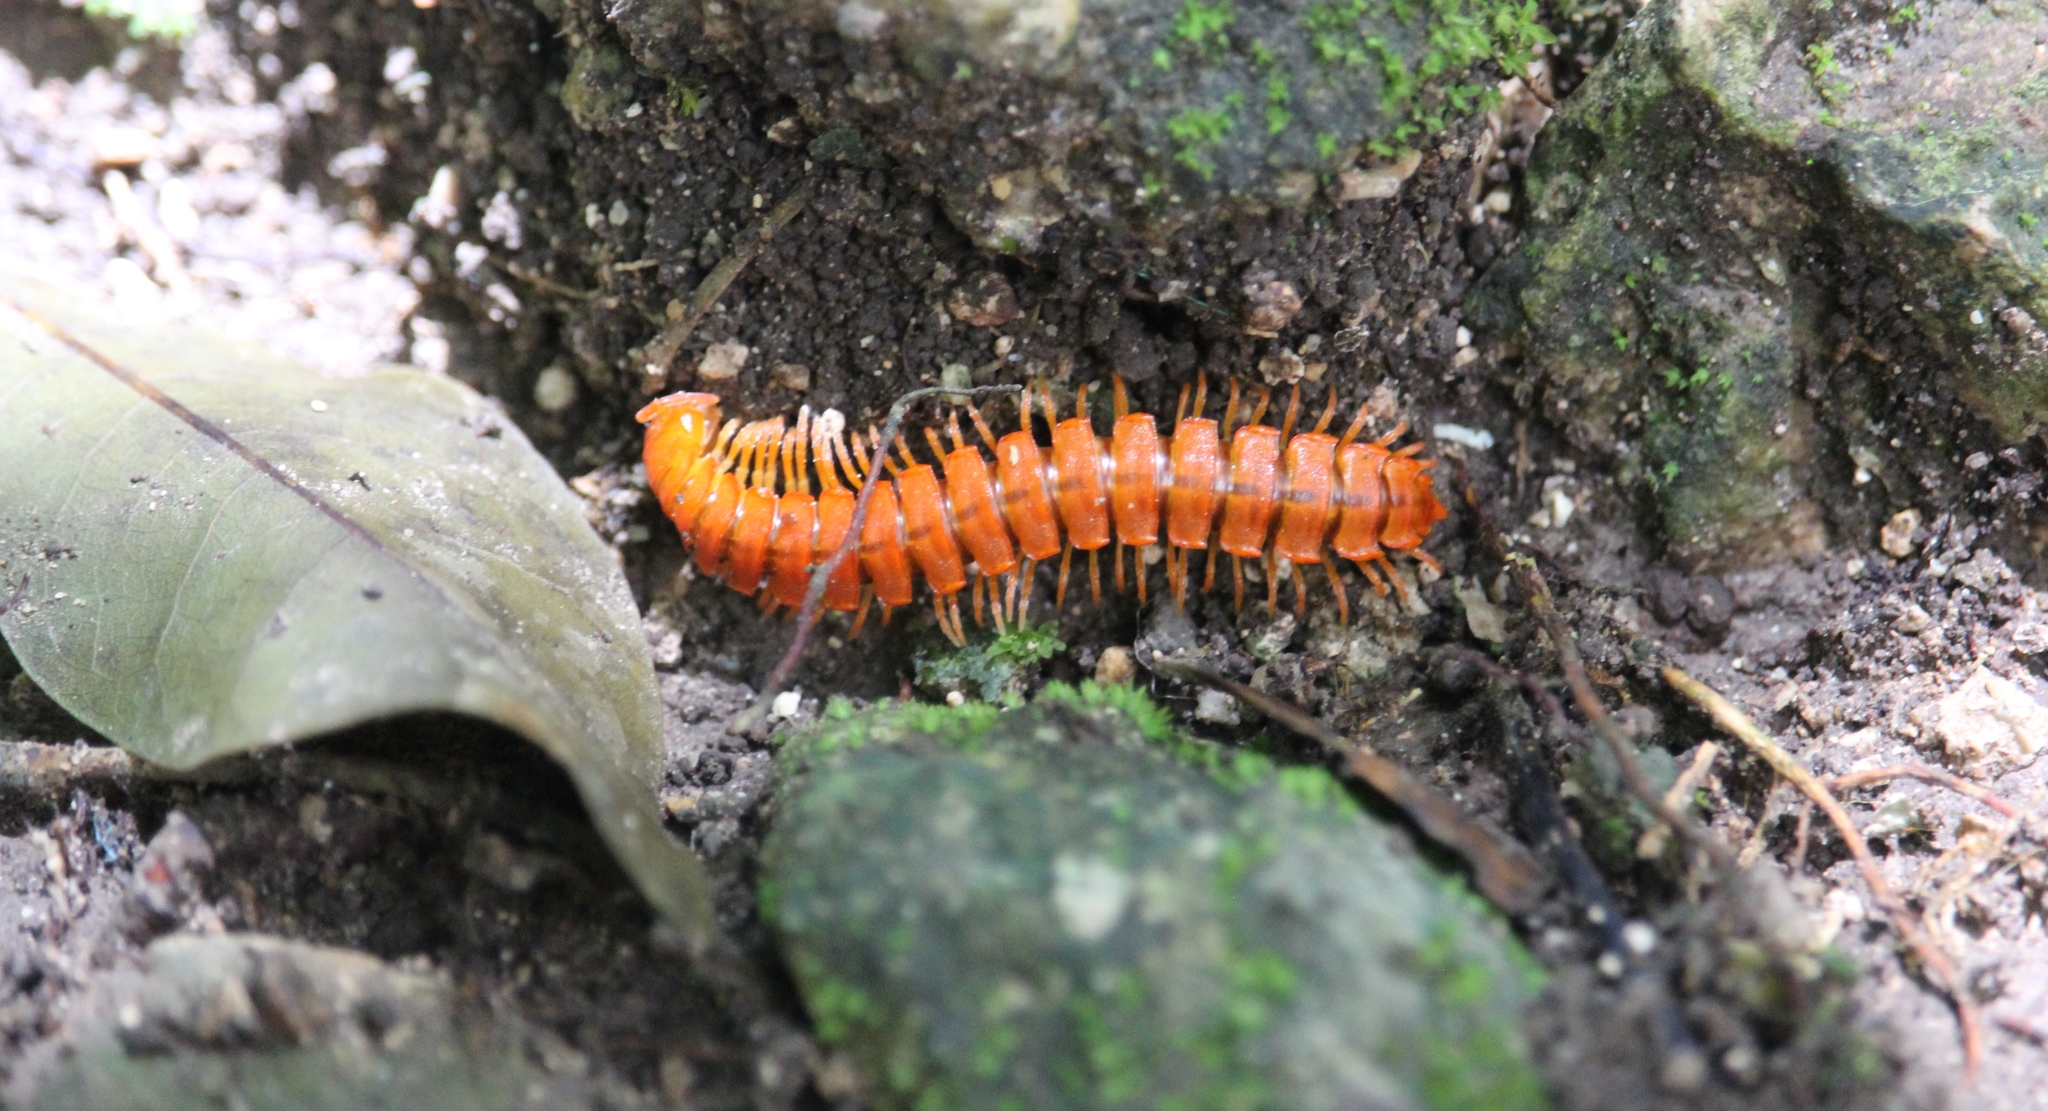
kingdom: Animalia
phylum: Arthropoda
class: Diplopoda
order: Polydesmida
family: Rhachodesmidae
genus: Aceratophallus
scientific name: Aceratophallus maya
